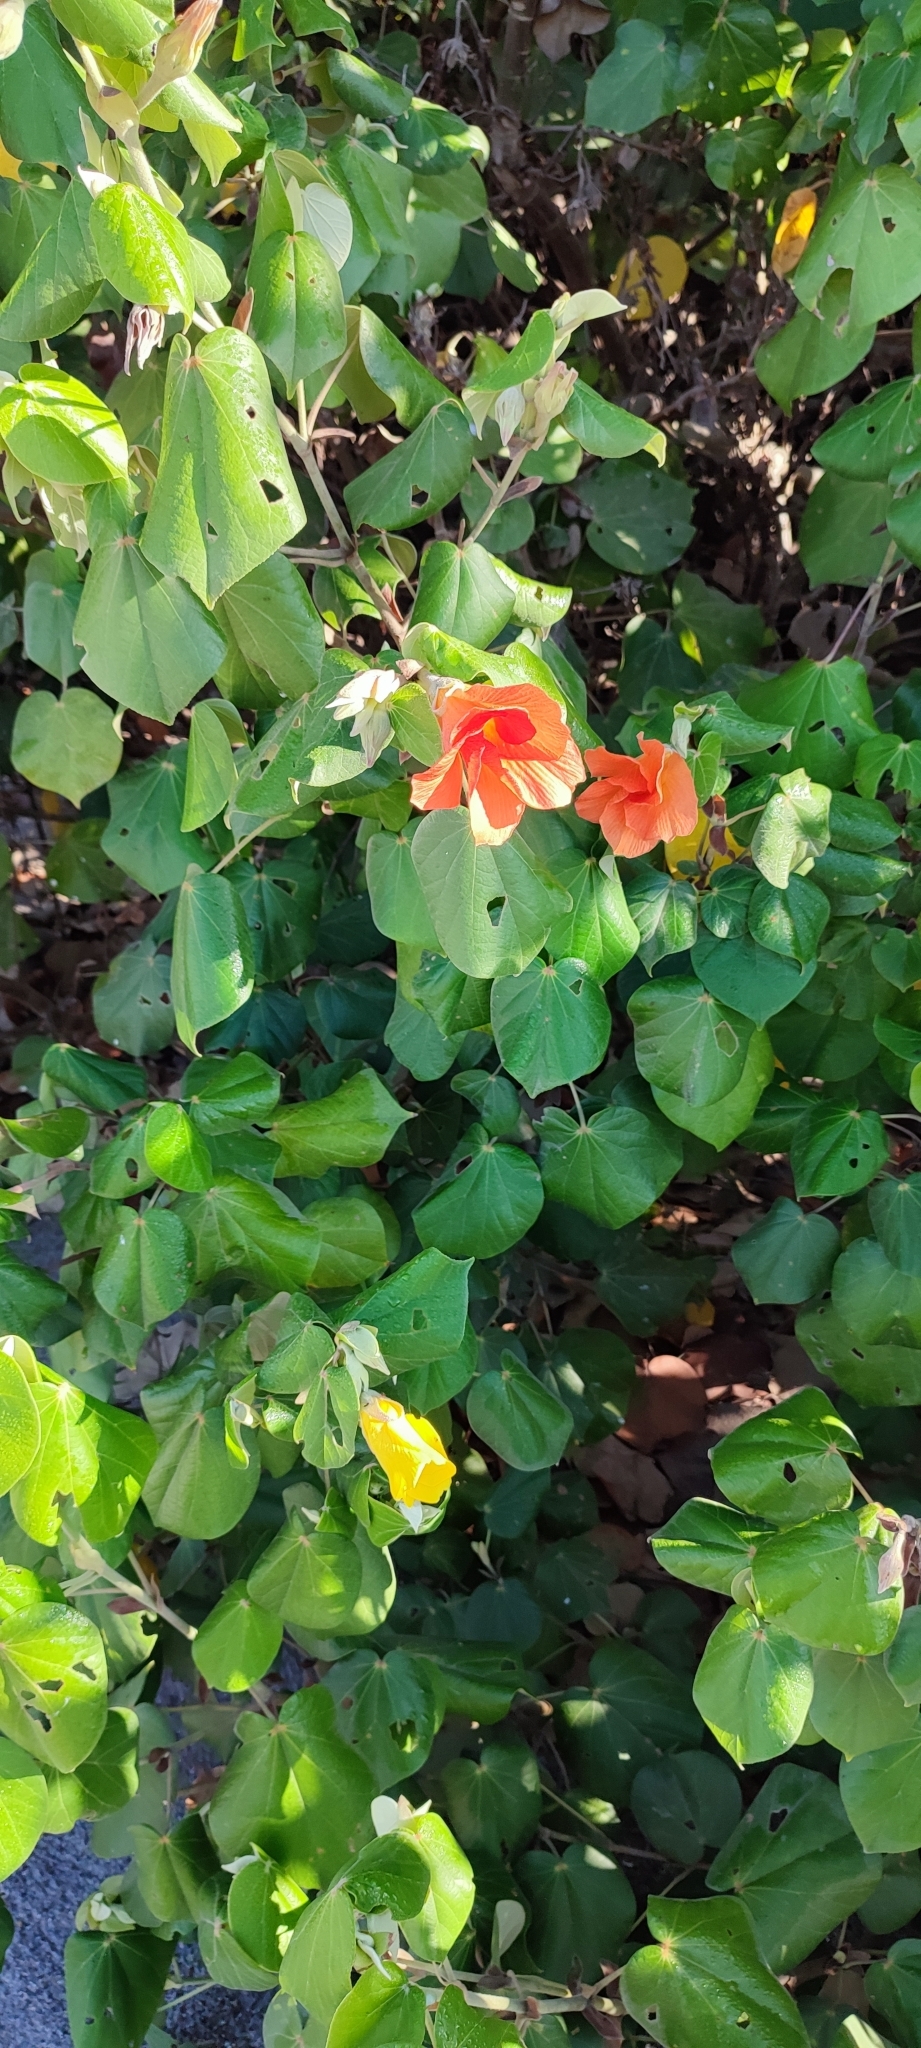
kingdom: Plantae
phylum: Tracheophyta
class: Magnoliopsida
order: Malvales
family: Malvaceae
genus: Talipariti
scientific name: Talipariti tiliaceum
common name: Sea hibiscus
